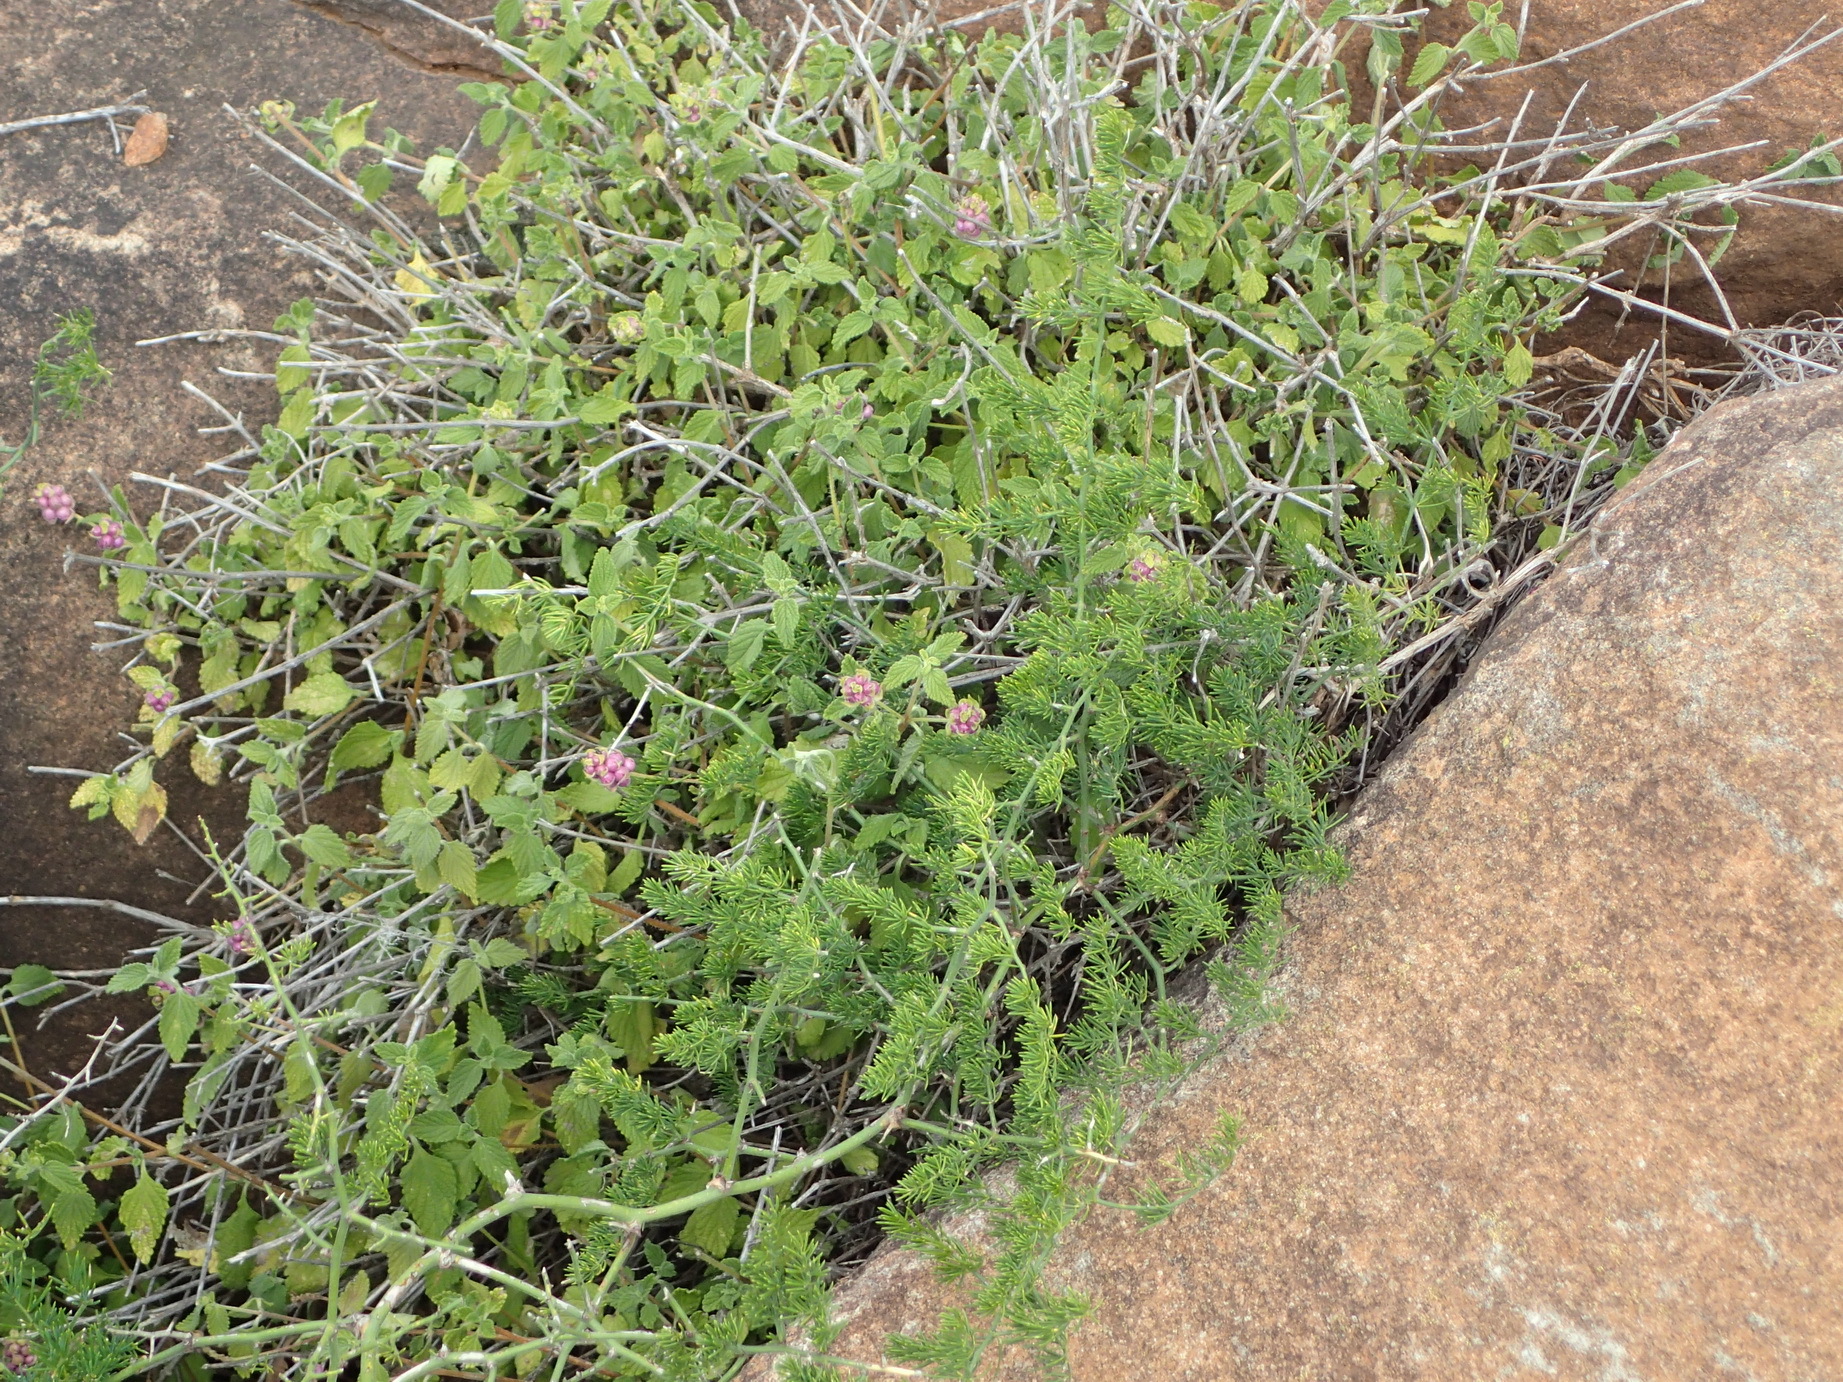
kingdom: Plantae
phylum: Tracheophyta
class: Magnoliopsida
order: Lamiales
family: Verbenaceae
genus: Lantana
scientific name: Lantana rugosa
